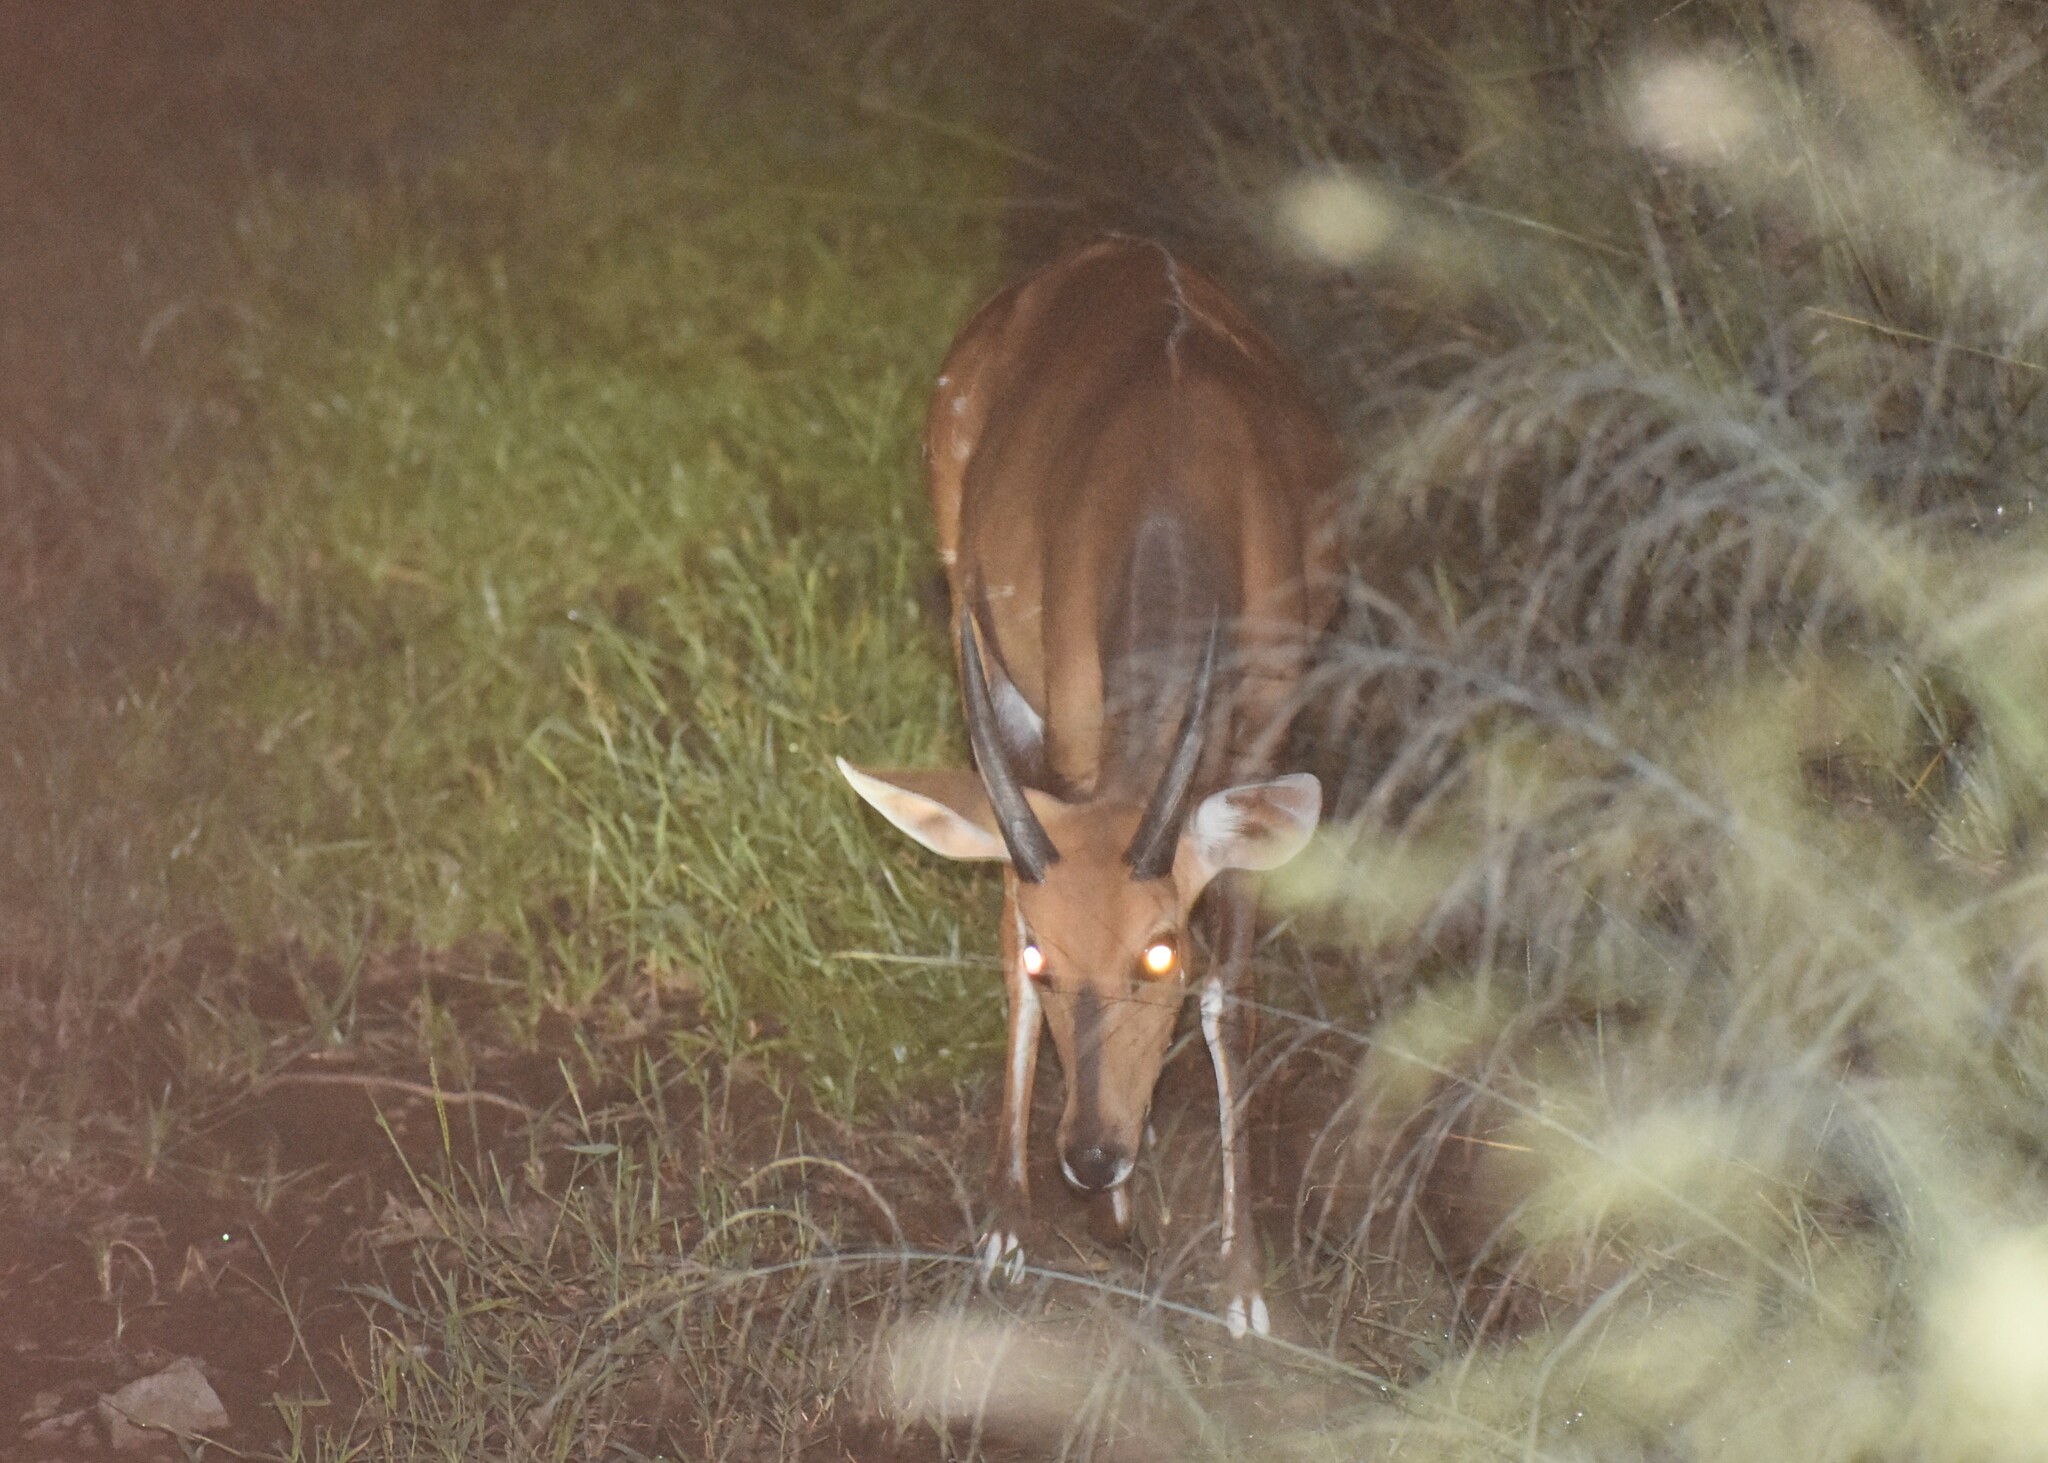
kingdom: Animalia
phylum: Chordata
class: Mammalia
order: Artiodactyla
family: Bovidae
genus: Tragelaphus
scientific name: Tragelaphus scriptus
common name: Bushbuck
